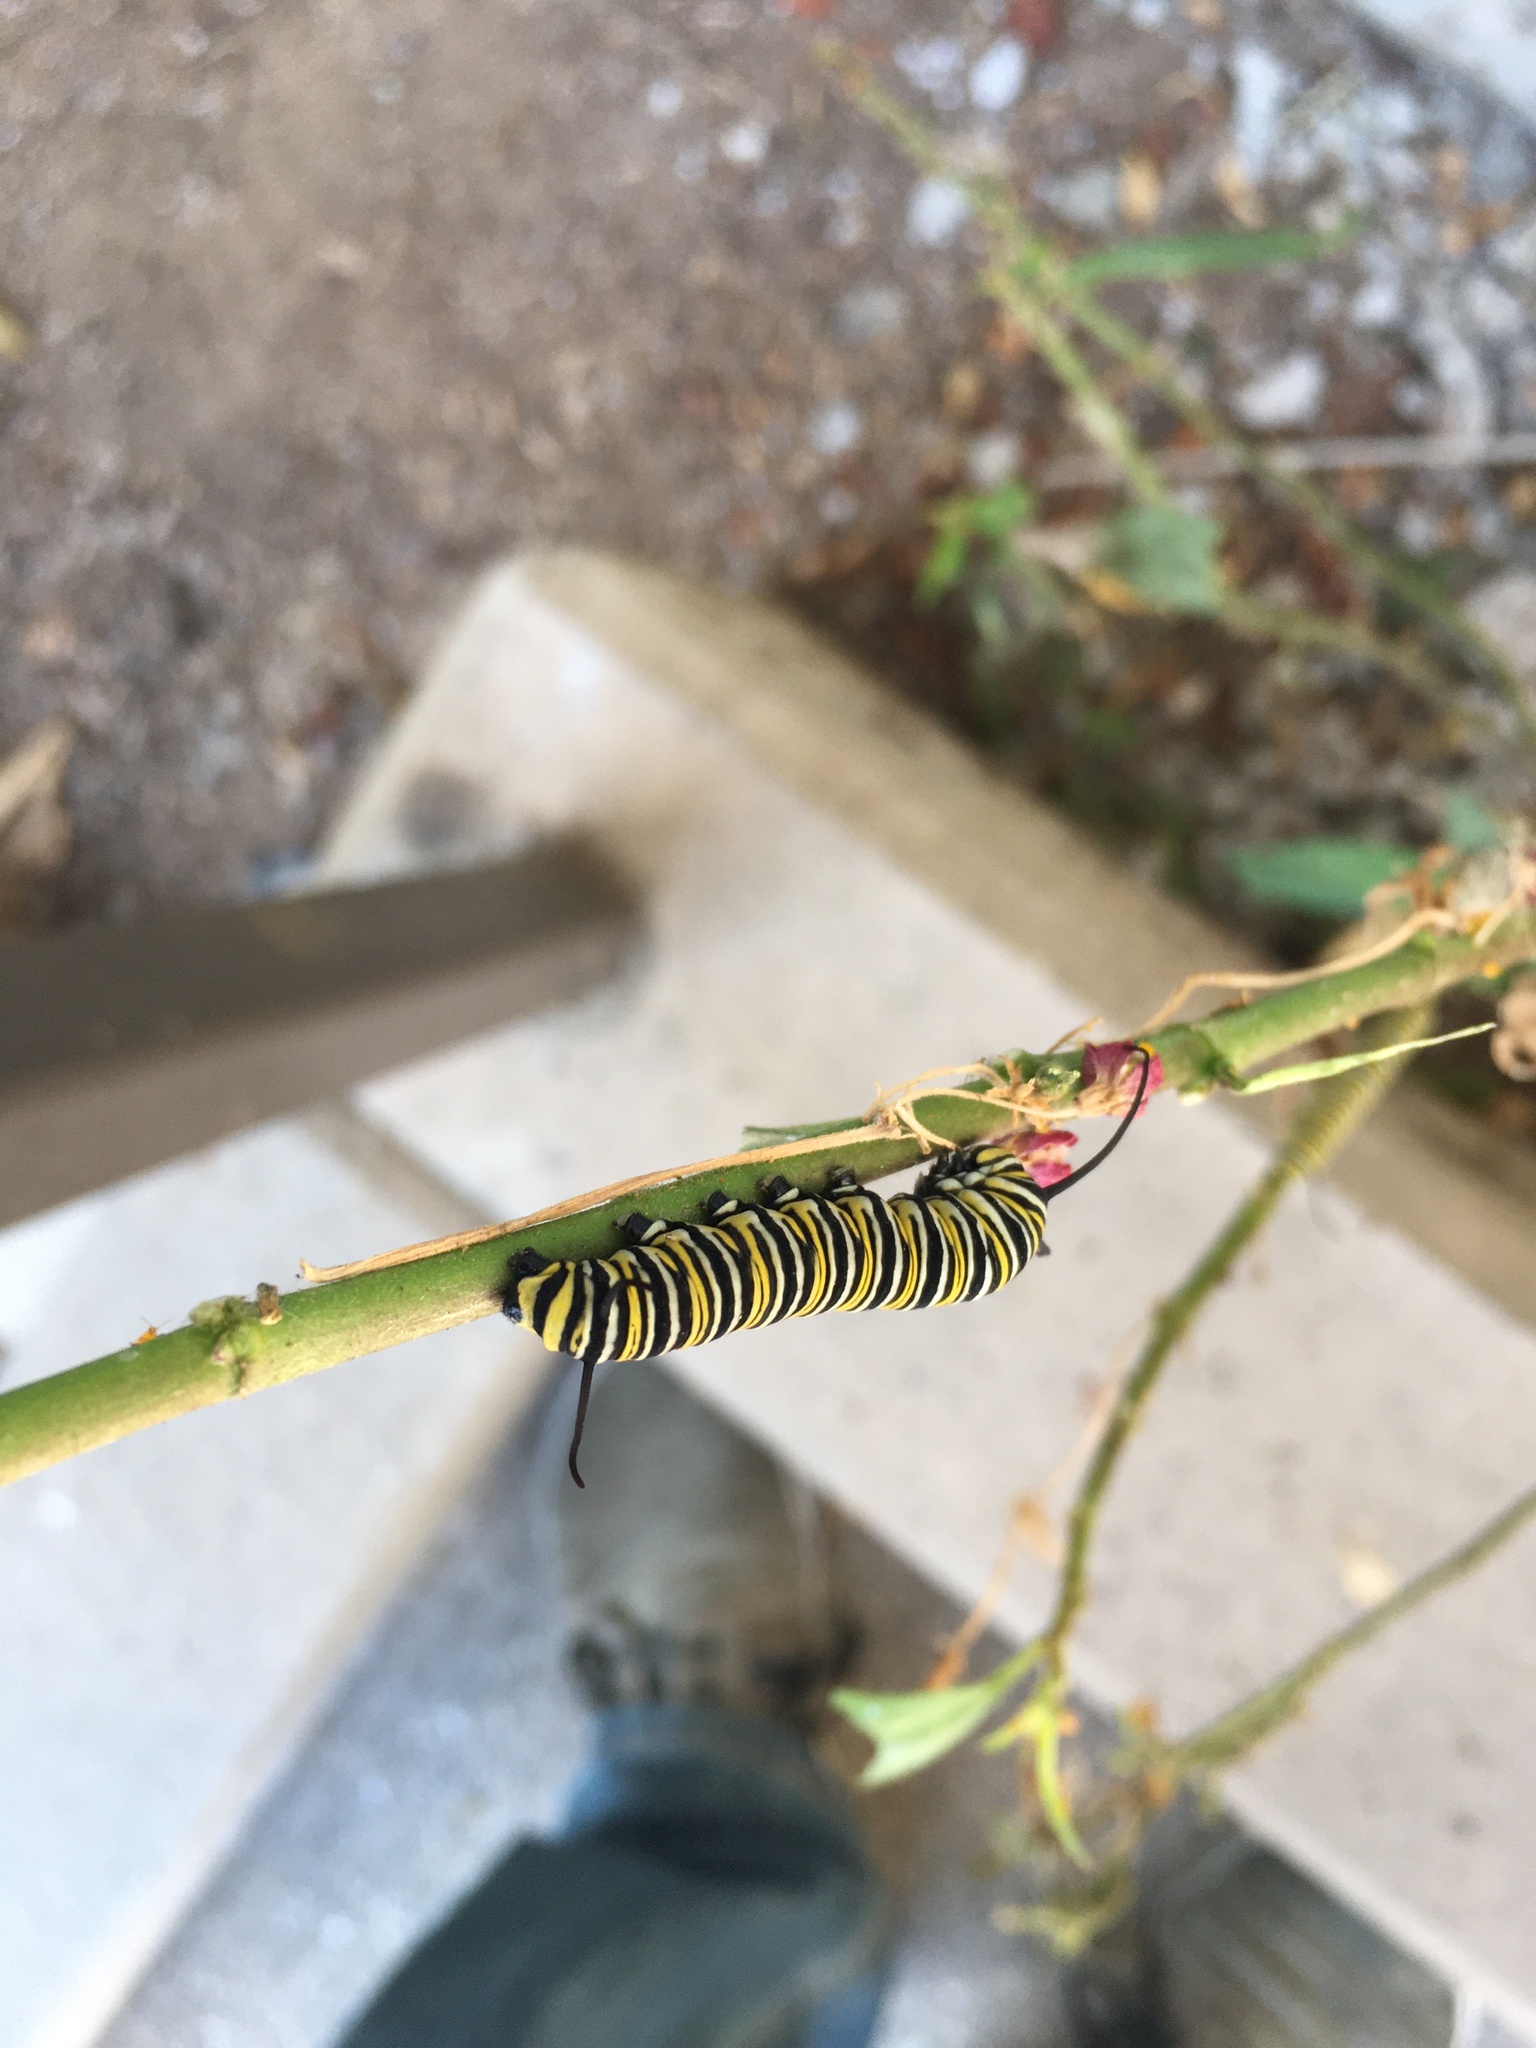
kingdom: Animalia
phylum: Arthropoda
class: Insecta
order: Lepidoptera
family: Nymphalidae
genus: Danaus
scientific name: Danaus plexippus
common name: Monarch
